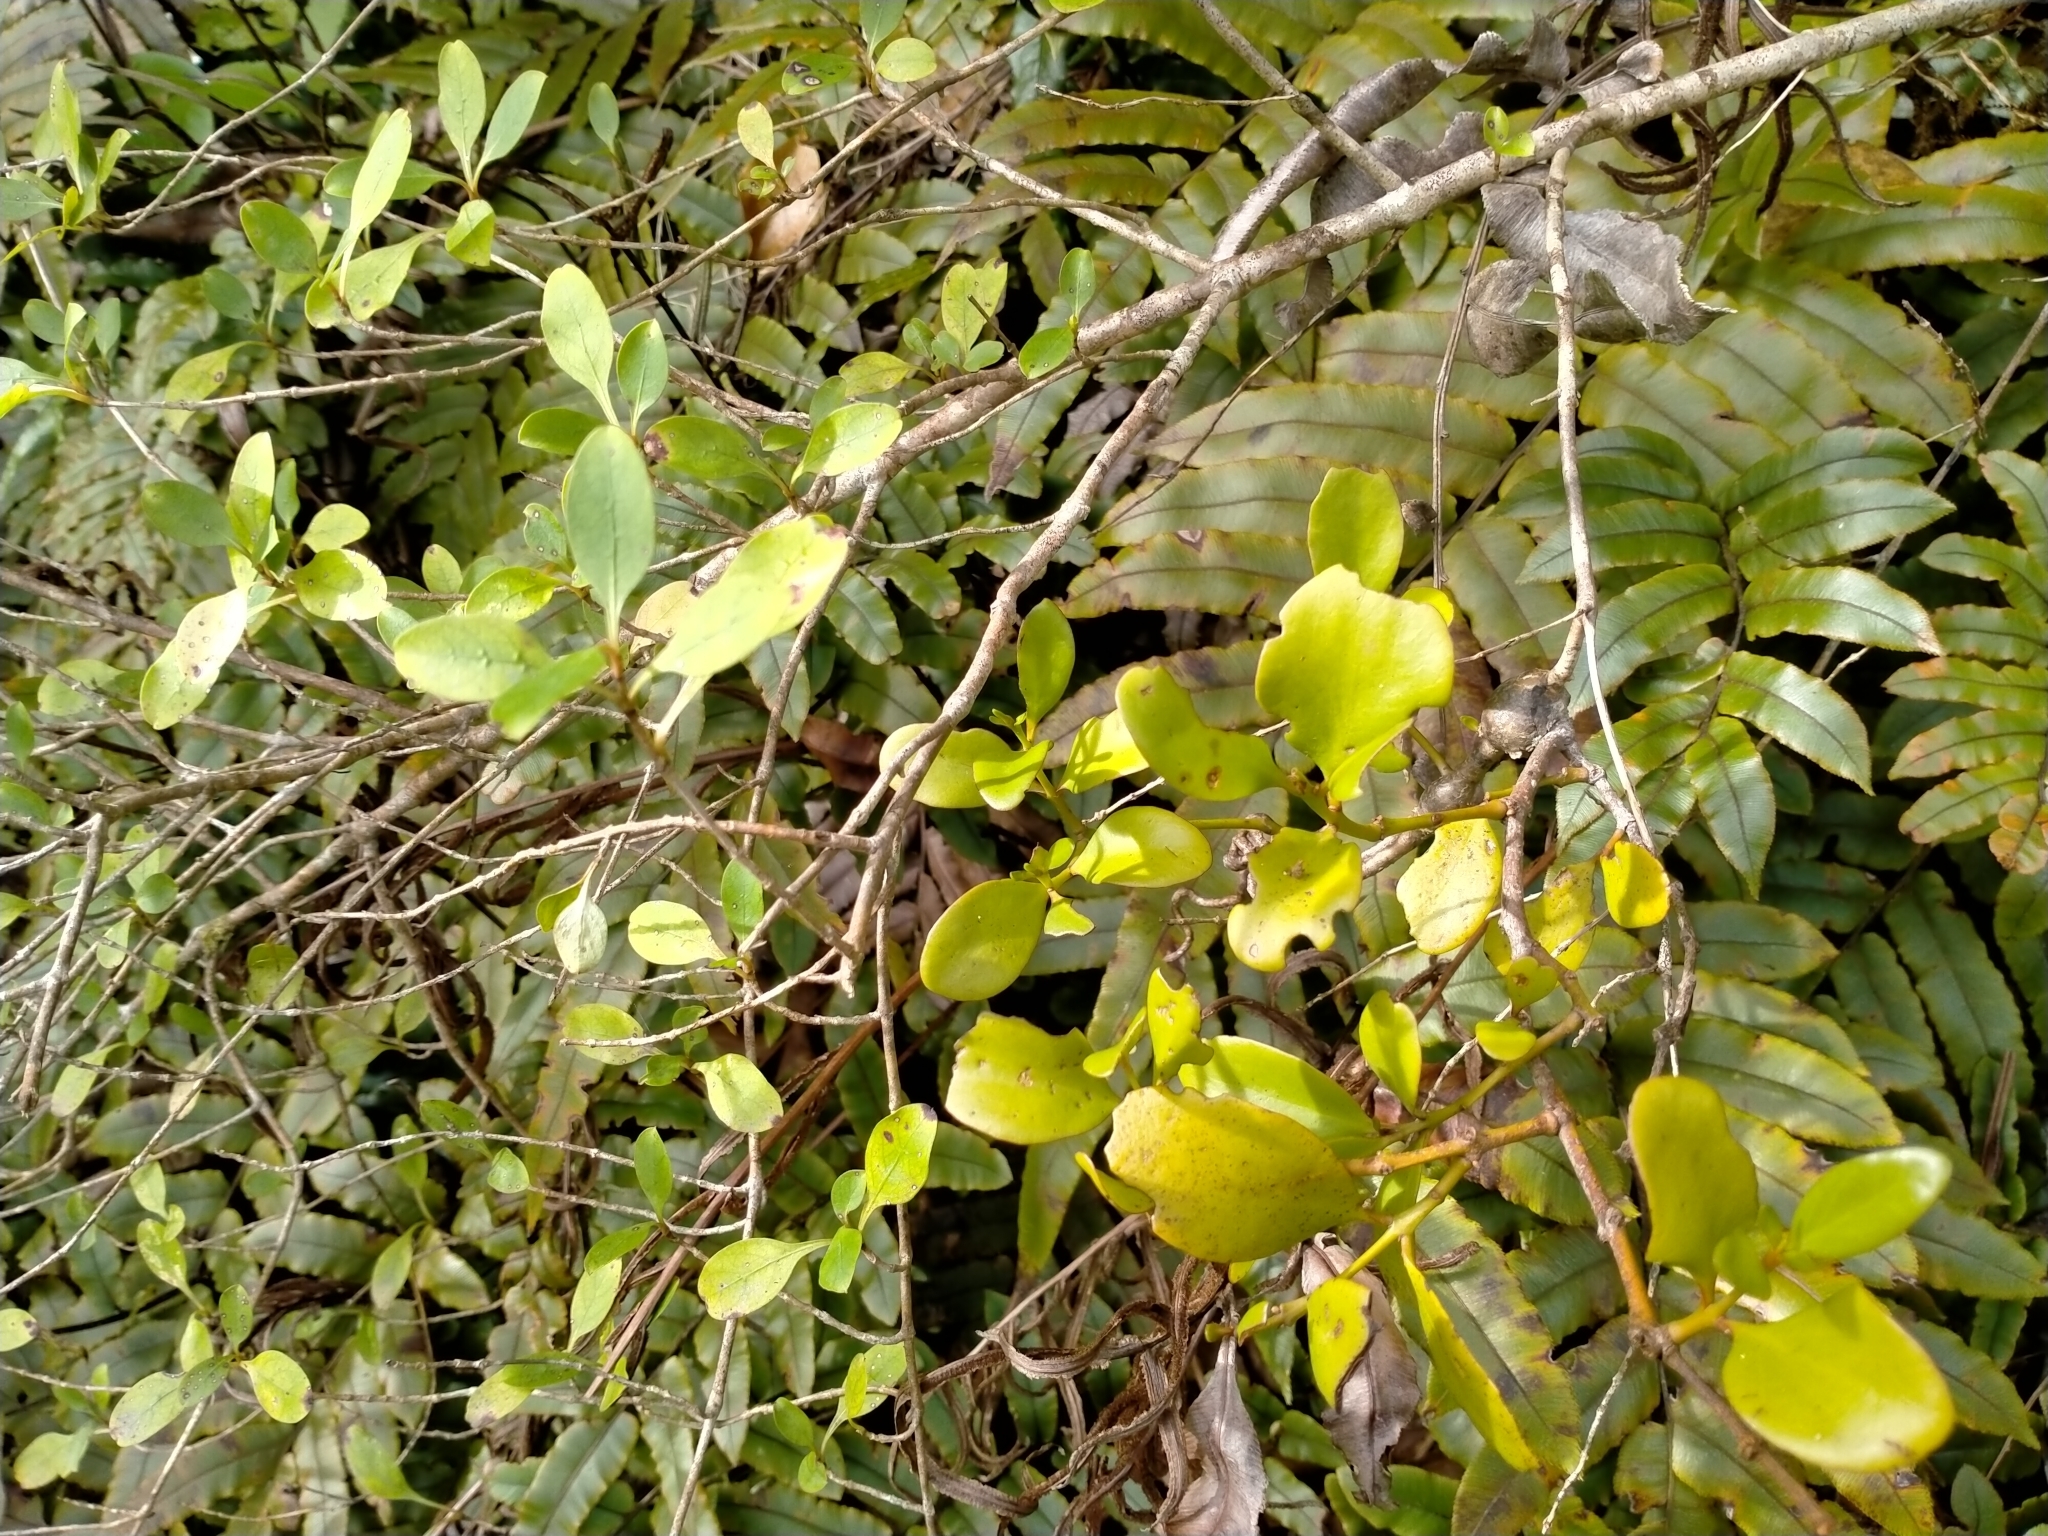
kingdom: Plantae
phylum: Tracheophyta
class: Magnoliopsida
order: Santalales
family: Loranthaceae
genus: Ileostylus
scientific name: Ileostylus micranthus
